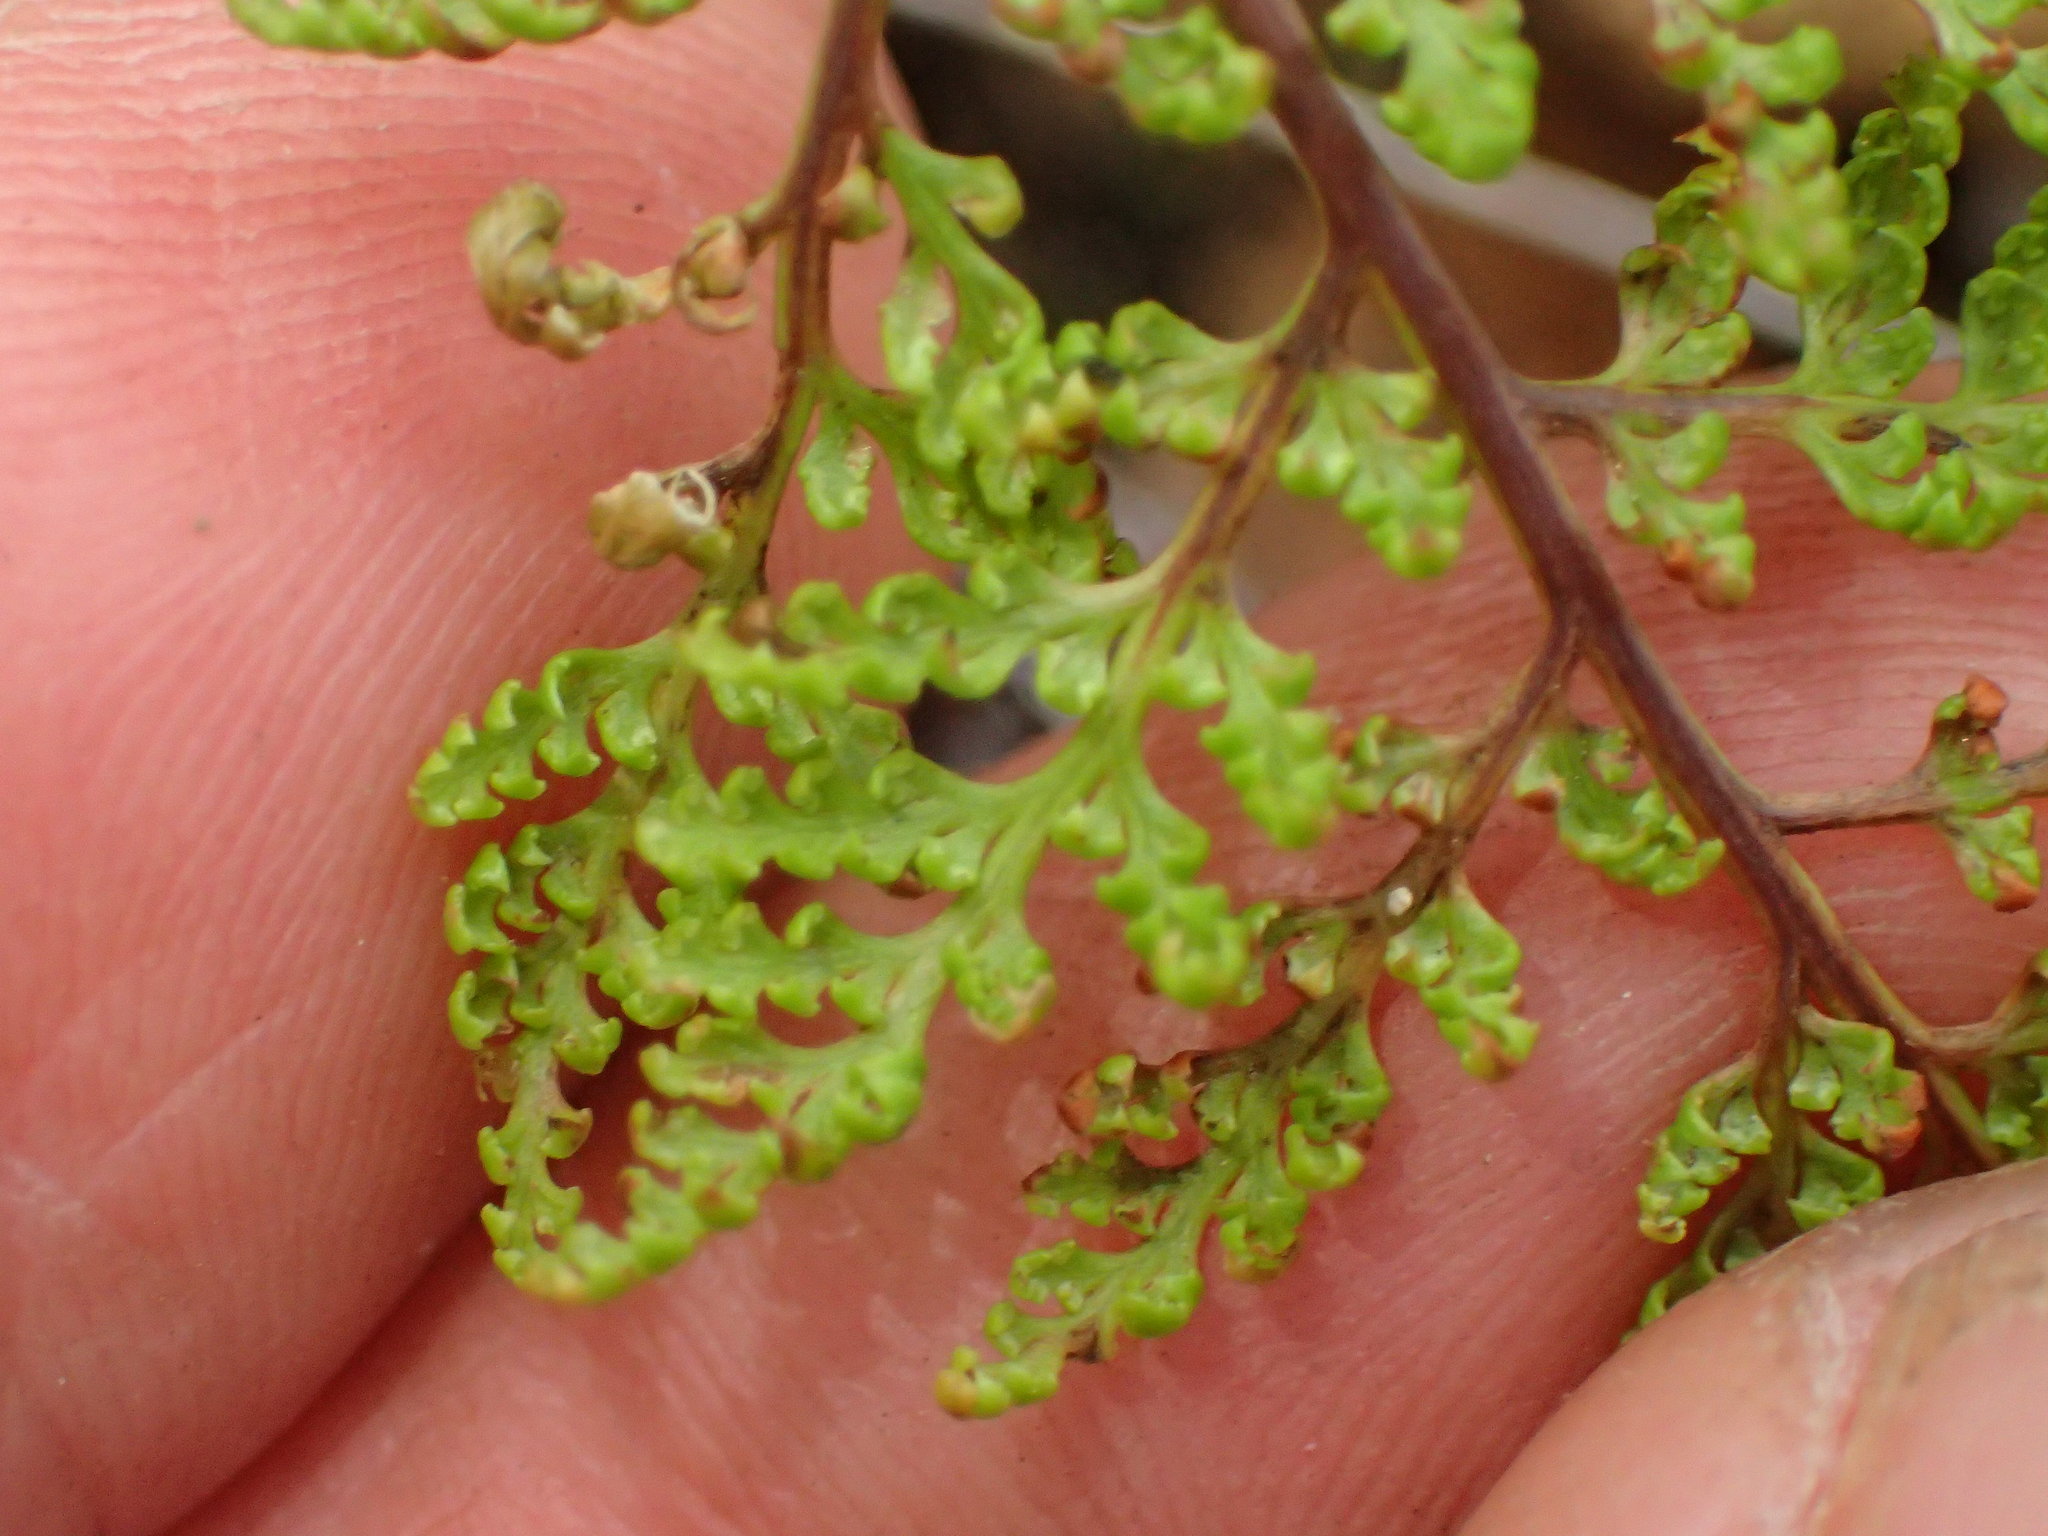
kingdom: Plantae
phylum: Tracheophyta
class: Polypodiopsida
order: Polypodiales
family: Pteridaceae
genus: Aspidotis
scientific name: Aspidotis californica
